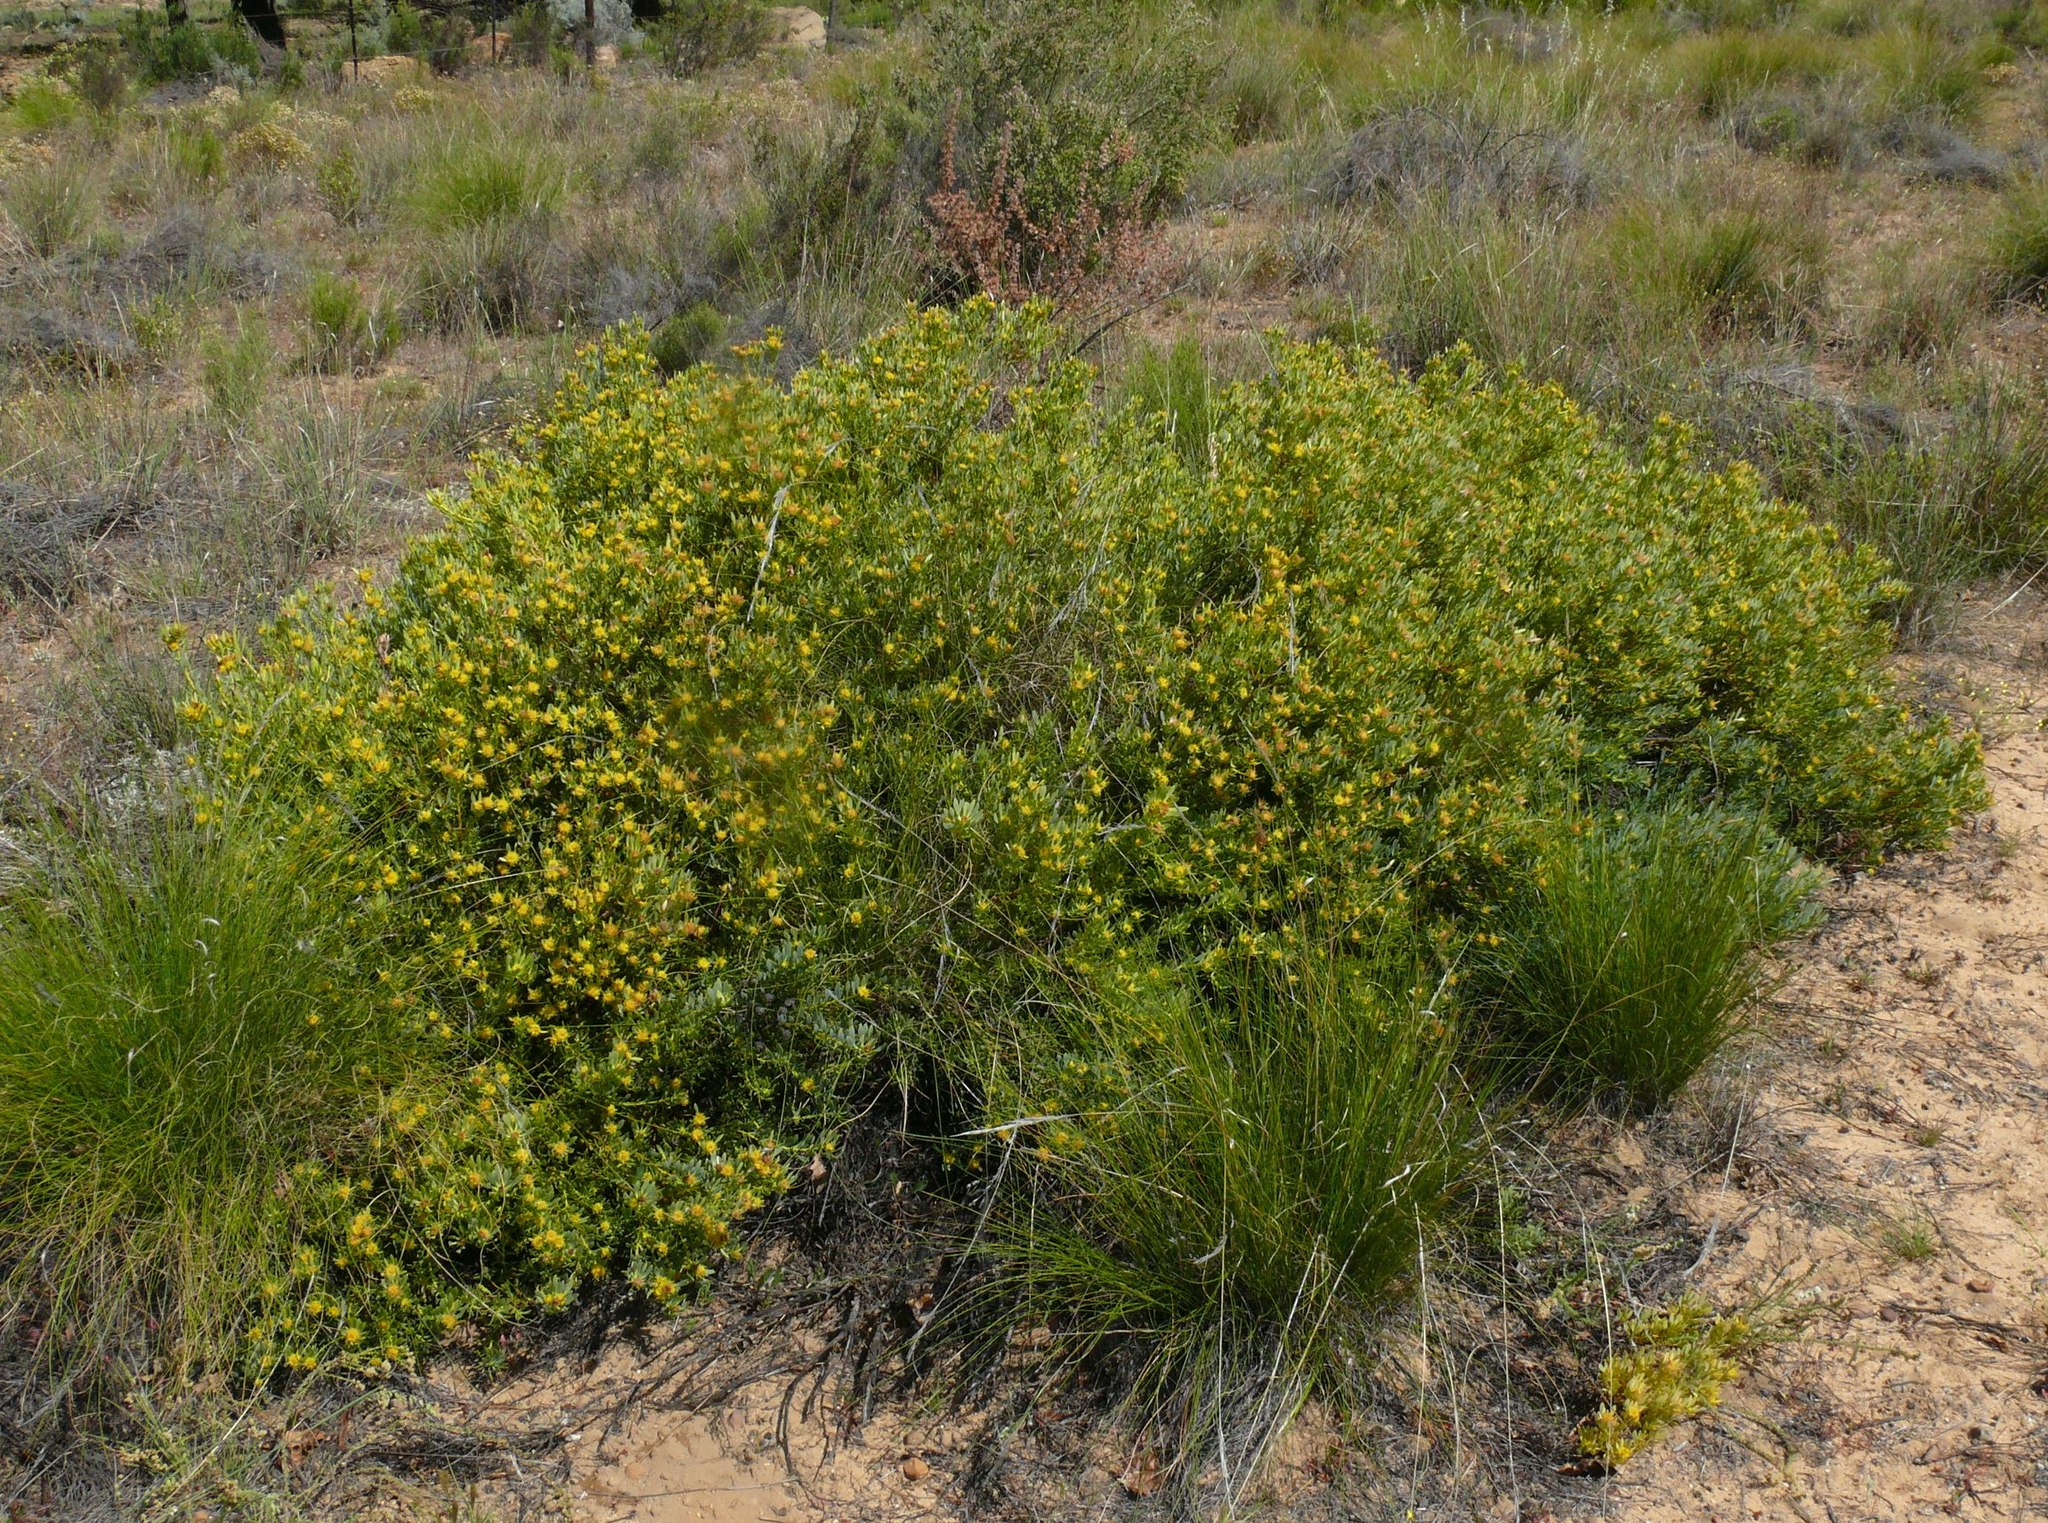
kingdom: Plantae
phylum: Tracheophyta
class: Magnoliopsida
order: Proteales
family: Proteaceae
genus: Leucadendron
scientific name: Leucadendron glaberrimum
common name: Common oily conebush
